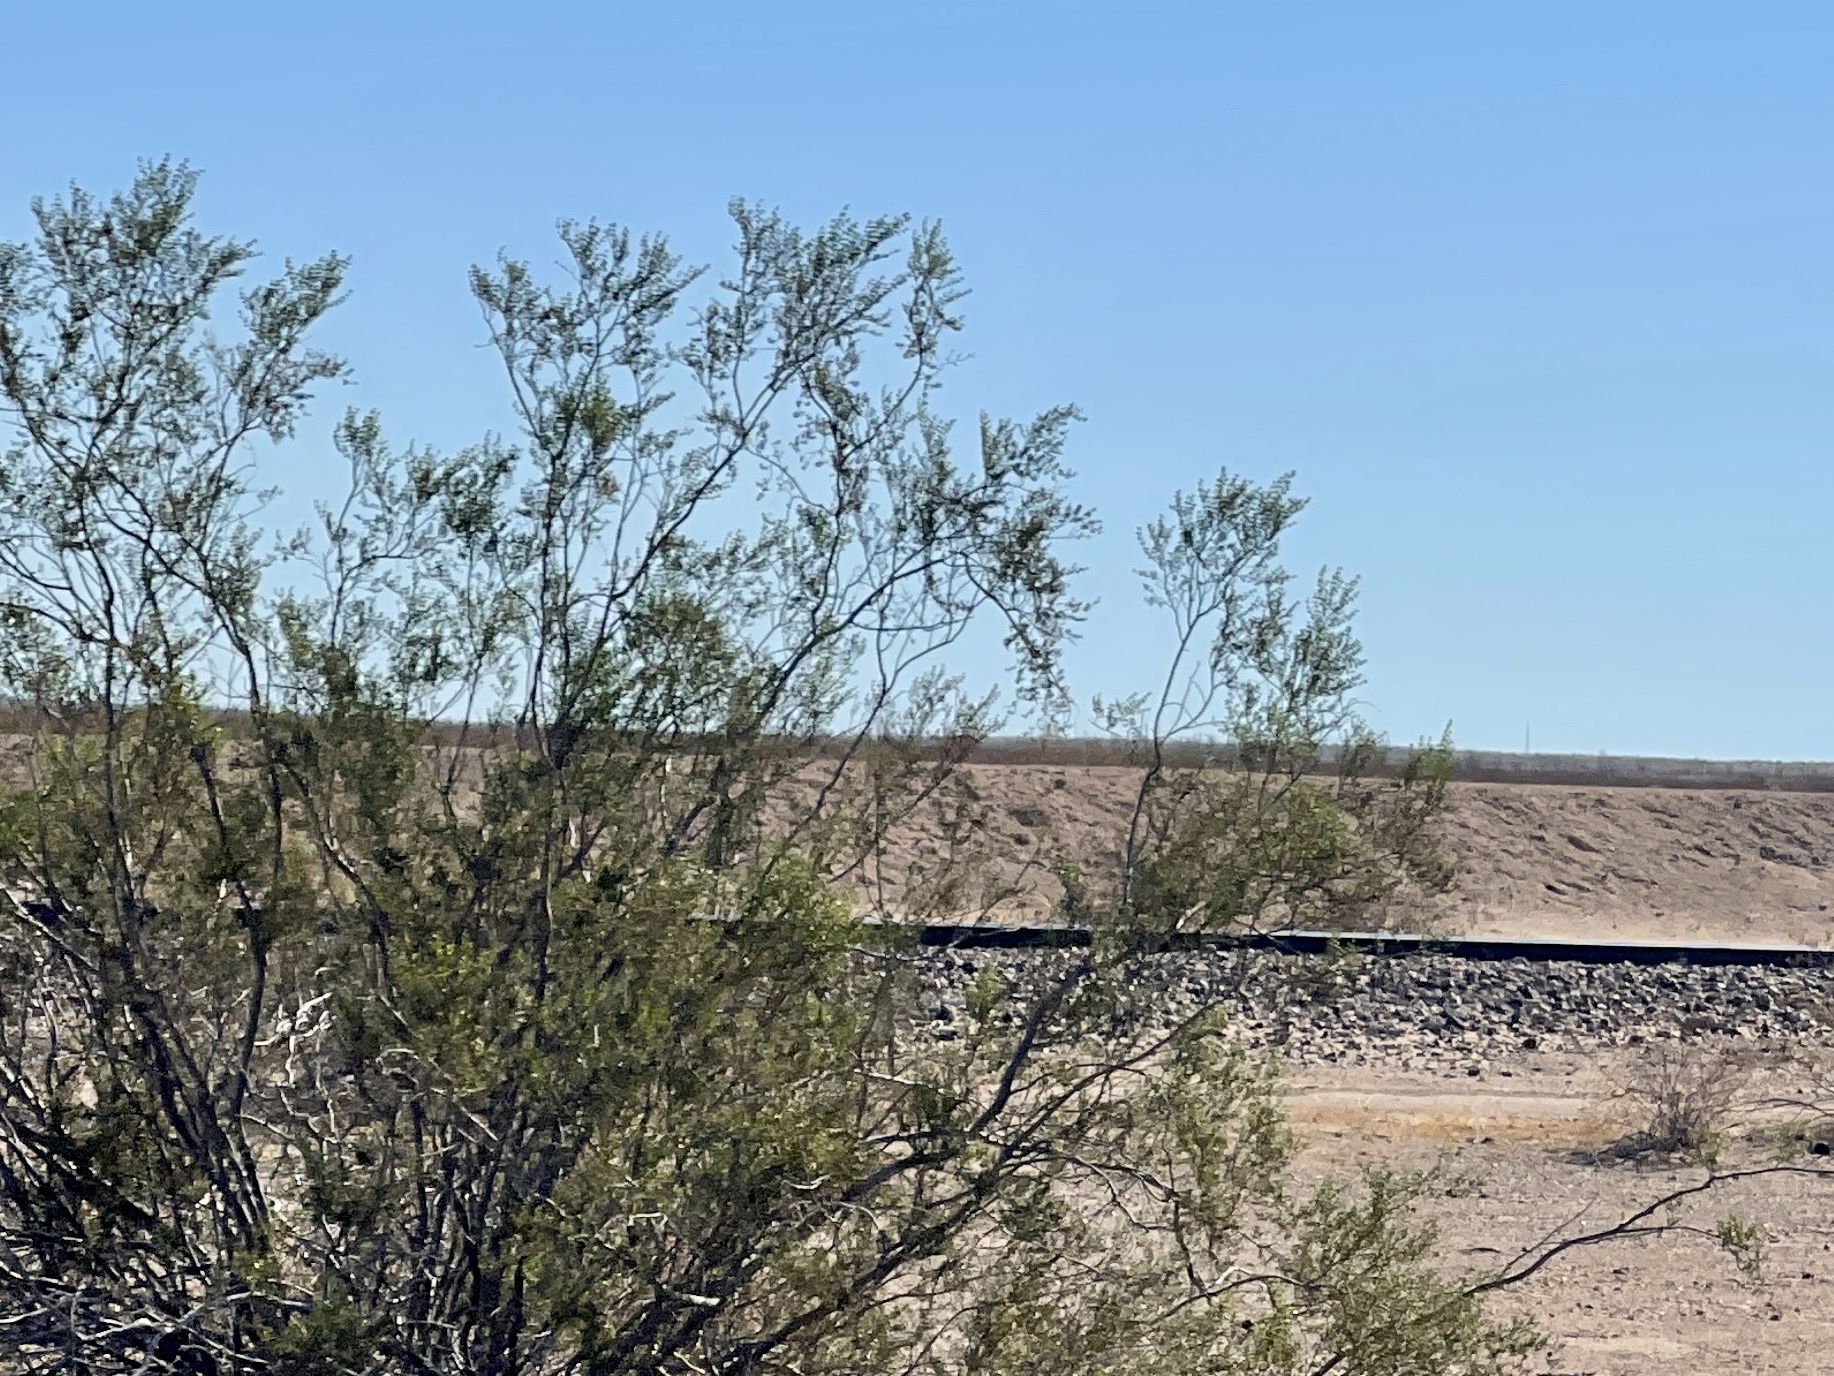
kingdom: Plantae
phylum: Tracheophyta
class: Magnoliopsida
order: Zygophyllales
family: Zygophyllaceae
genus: Larrea
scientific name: Larrea tridentata
